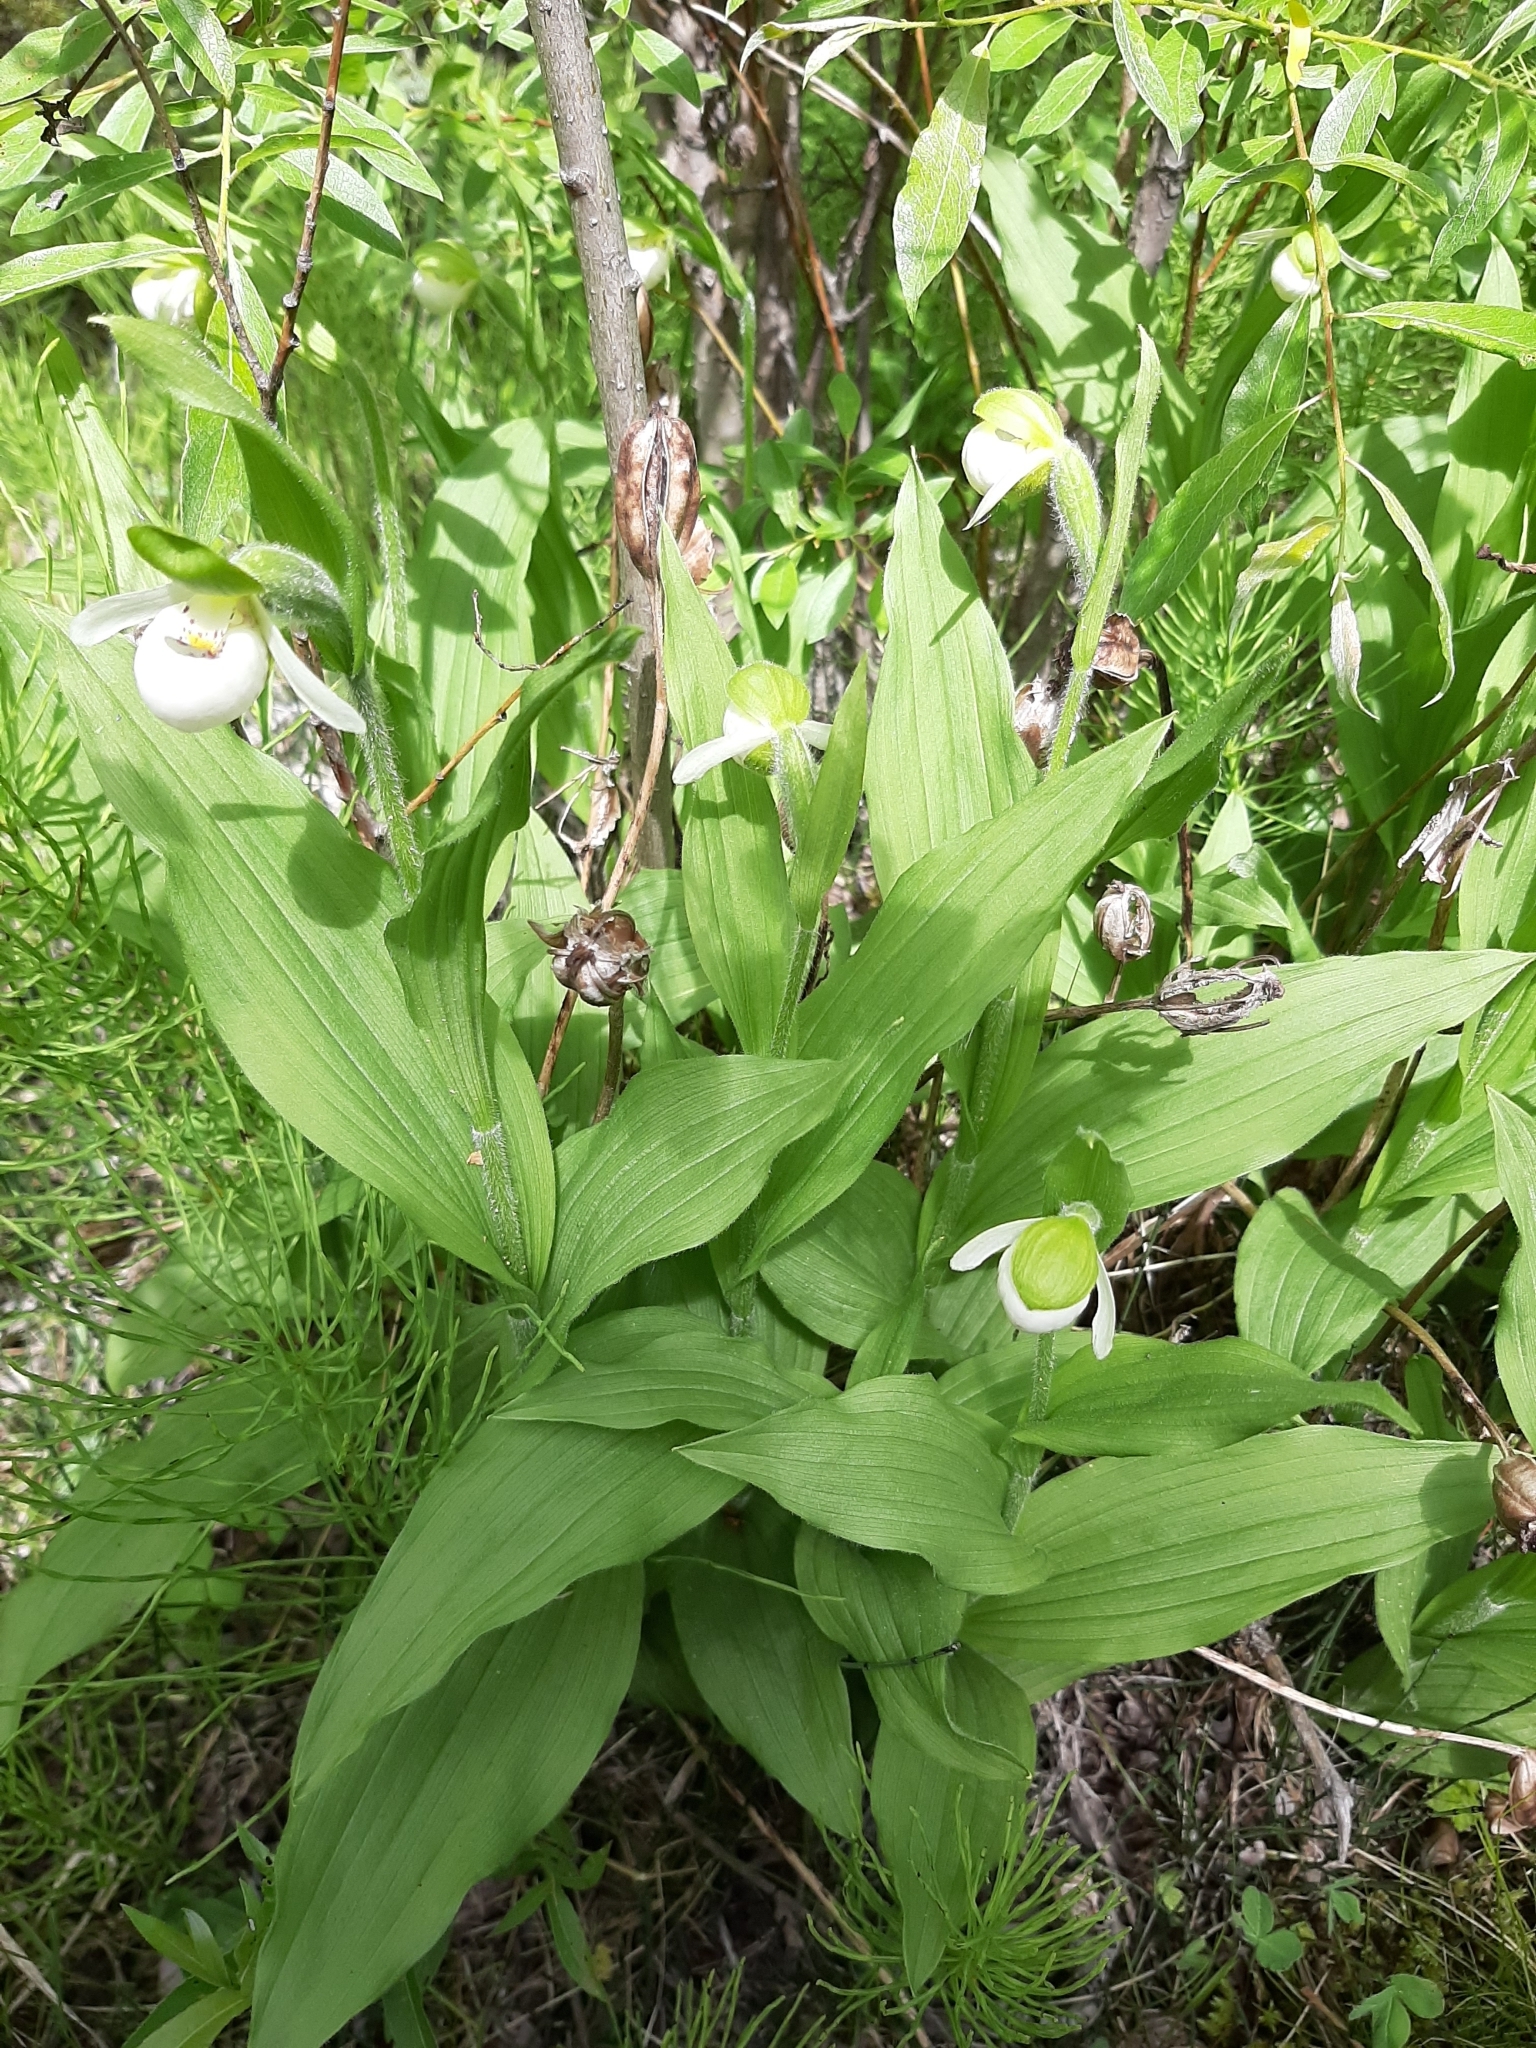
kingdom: Plantae
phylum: Tracheophyta
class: Liliopsida
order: Asparagales
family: Orchidaceae
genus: Cypripedium
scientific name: Cypripedium passerinum
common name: Sparrow's-egg lady's-slipper
